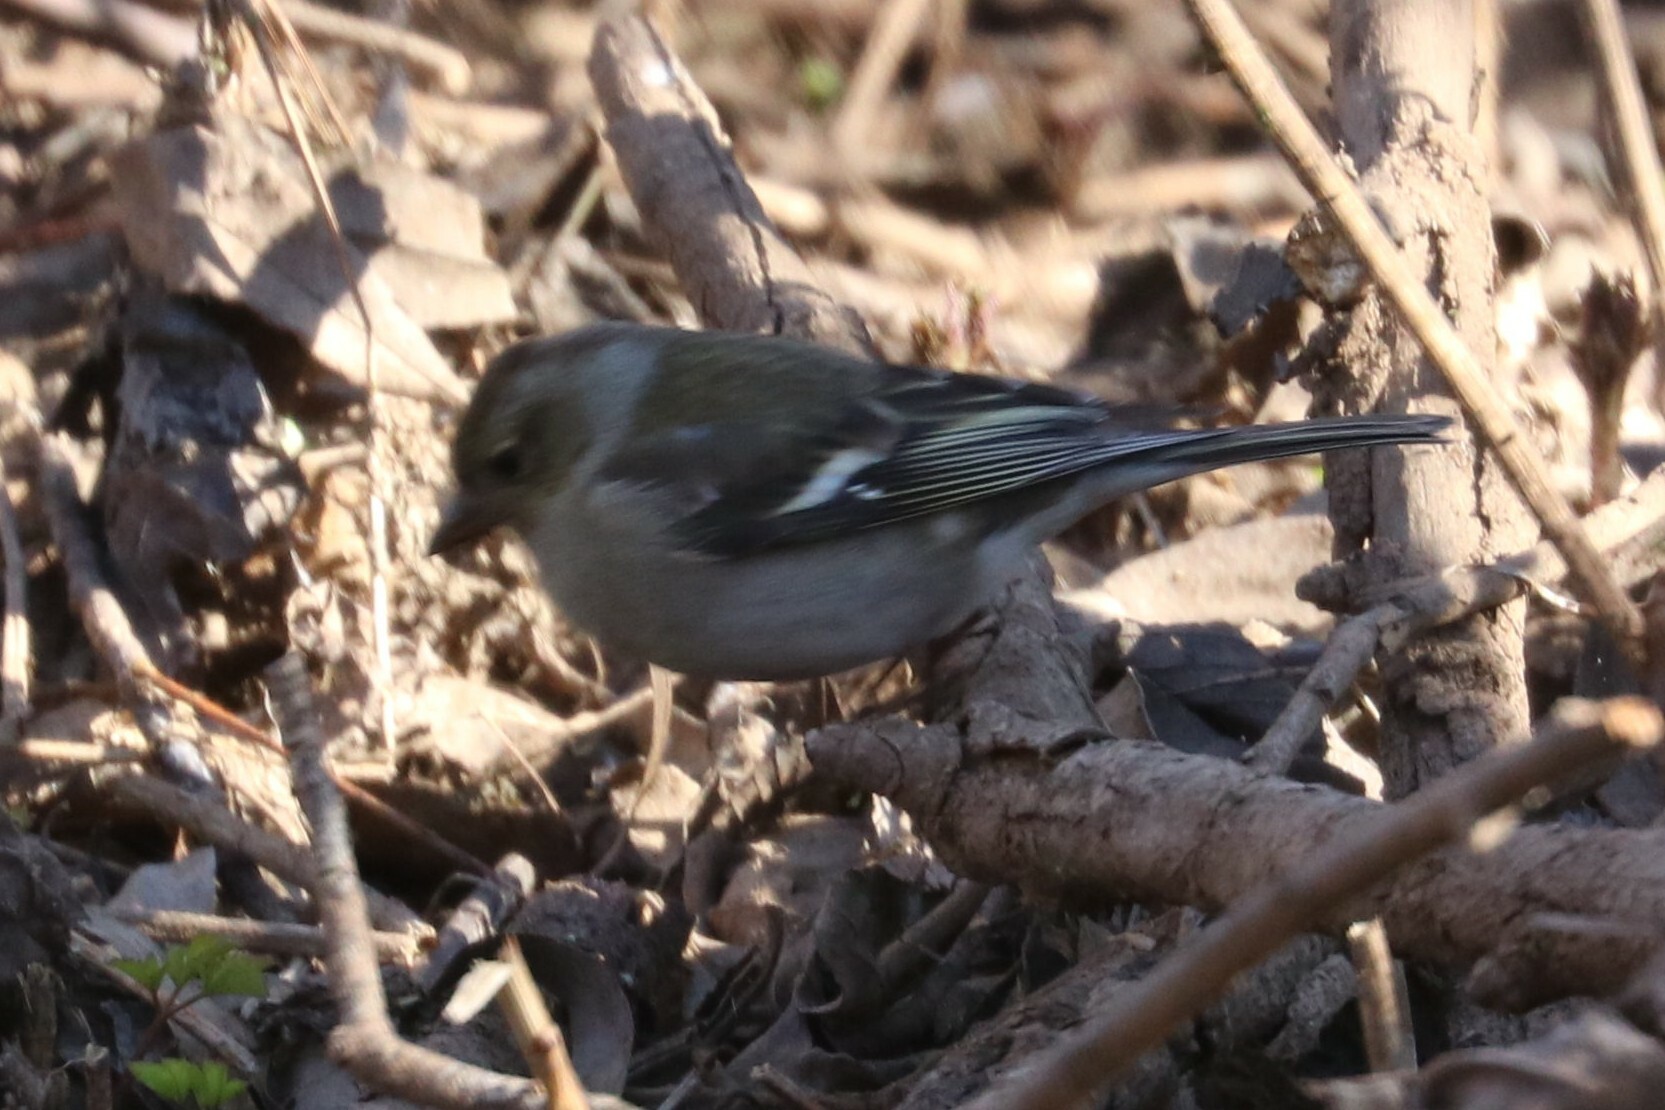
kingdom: Animalia
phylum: Chordata
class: Aves
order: Passeriformes
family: Fringillidae
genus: Fringilla
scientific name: Fringilla coelebs
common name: Common chaffinch
